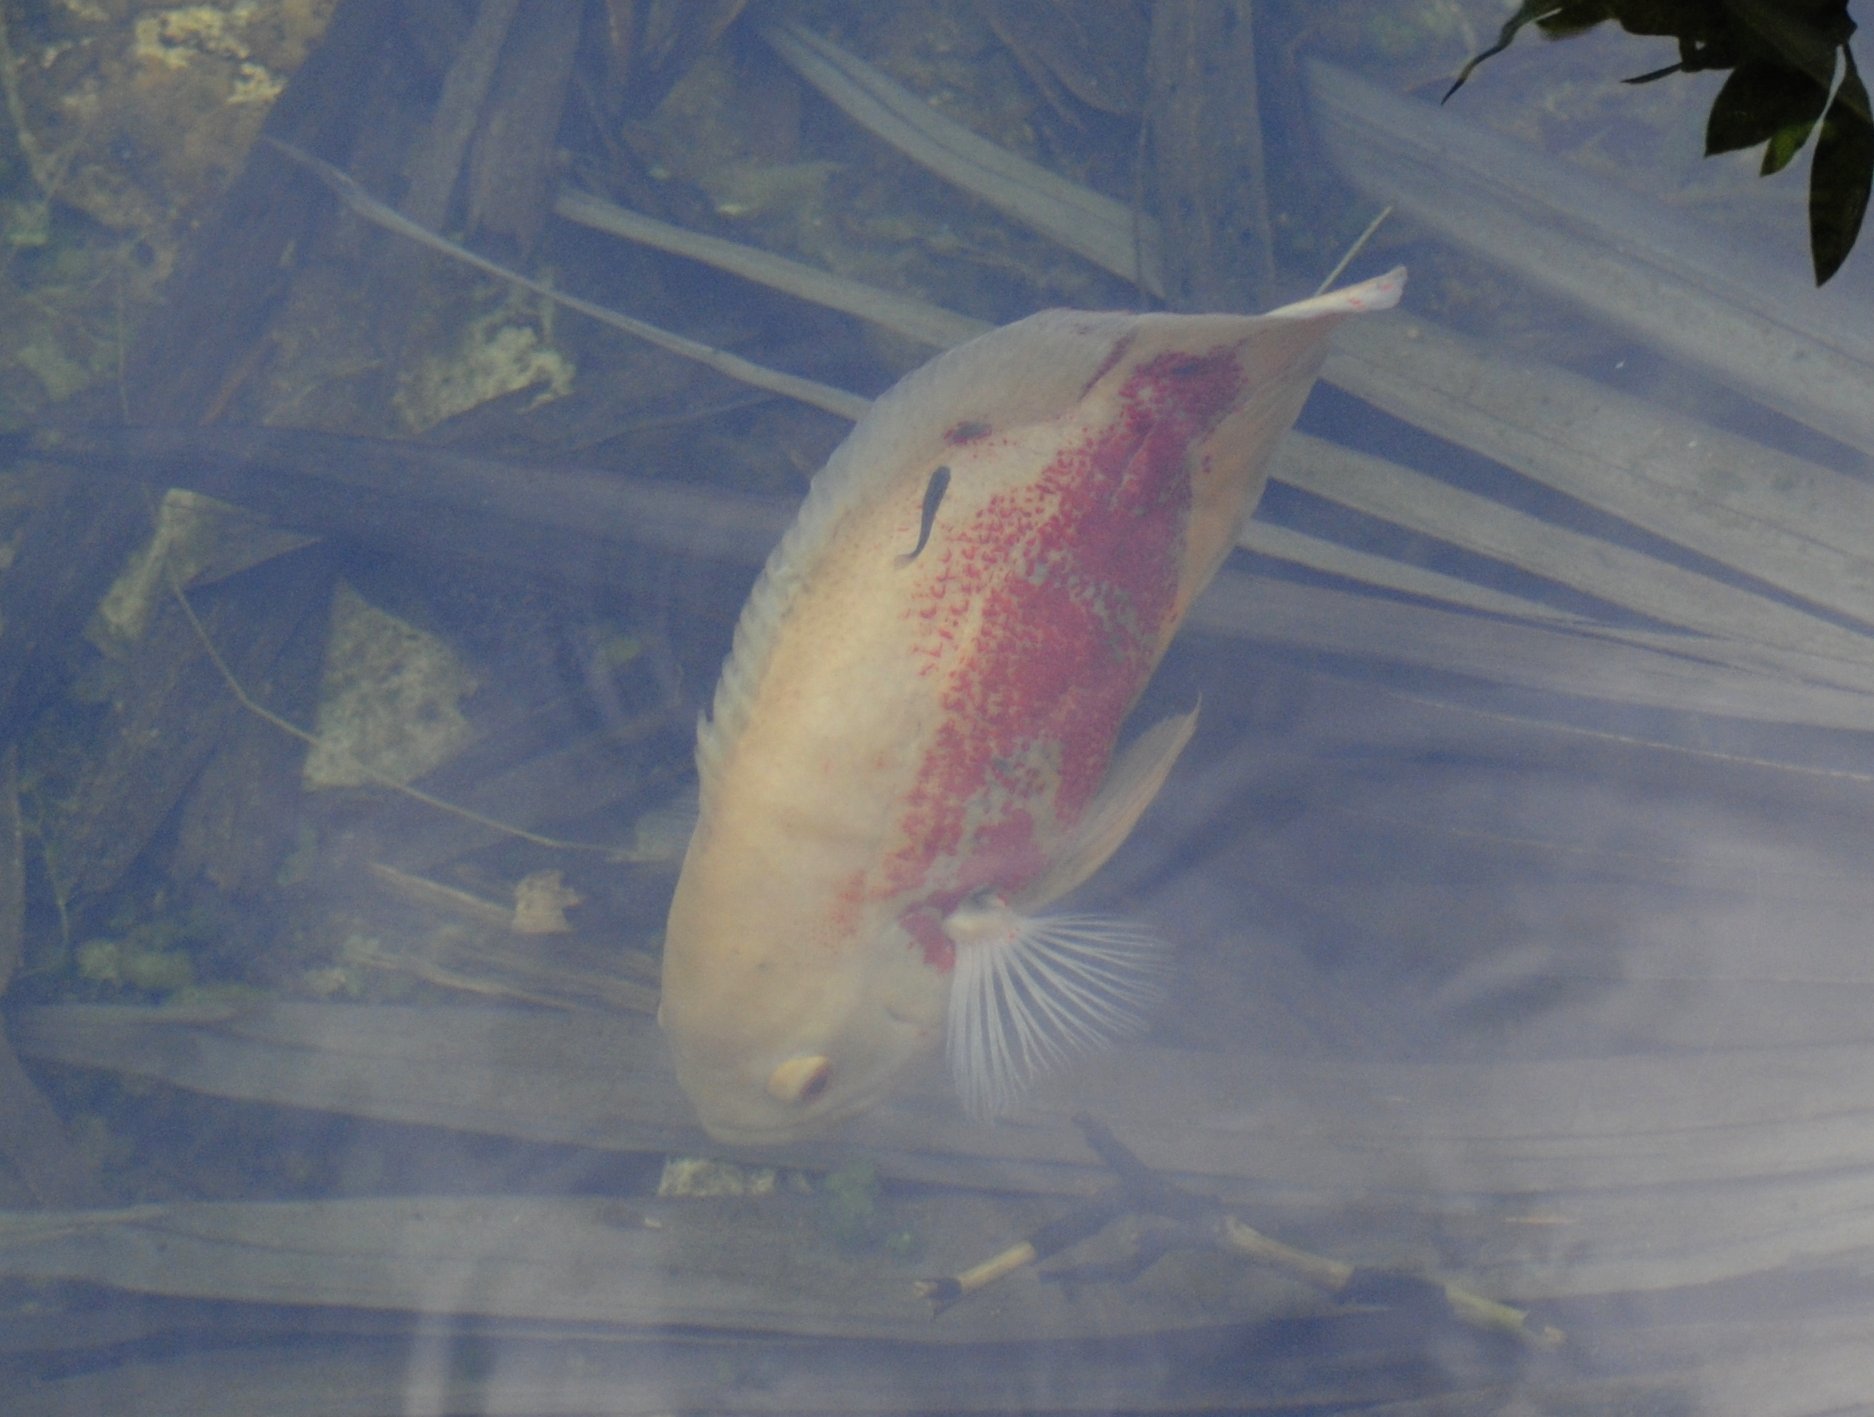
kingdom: Animalia
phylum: Chordata
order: Perciformes
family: Cichlidae
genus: Astronotus
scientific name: Astronotus ocellatus
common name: Oscar
